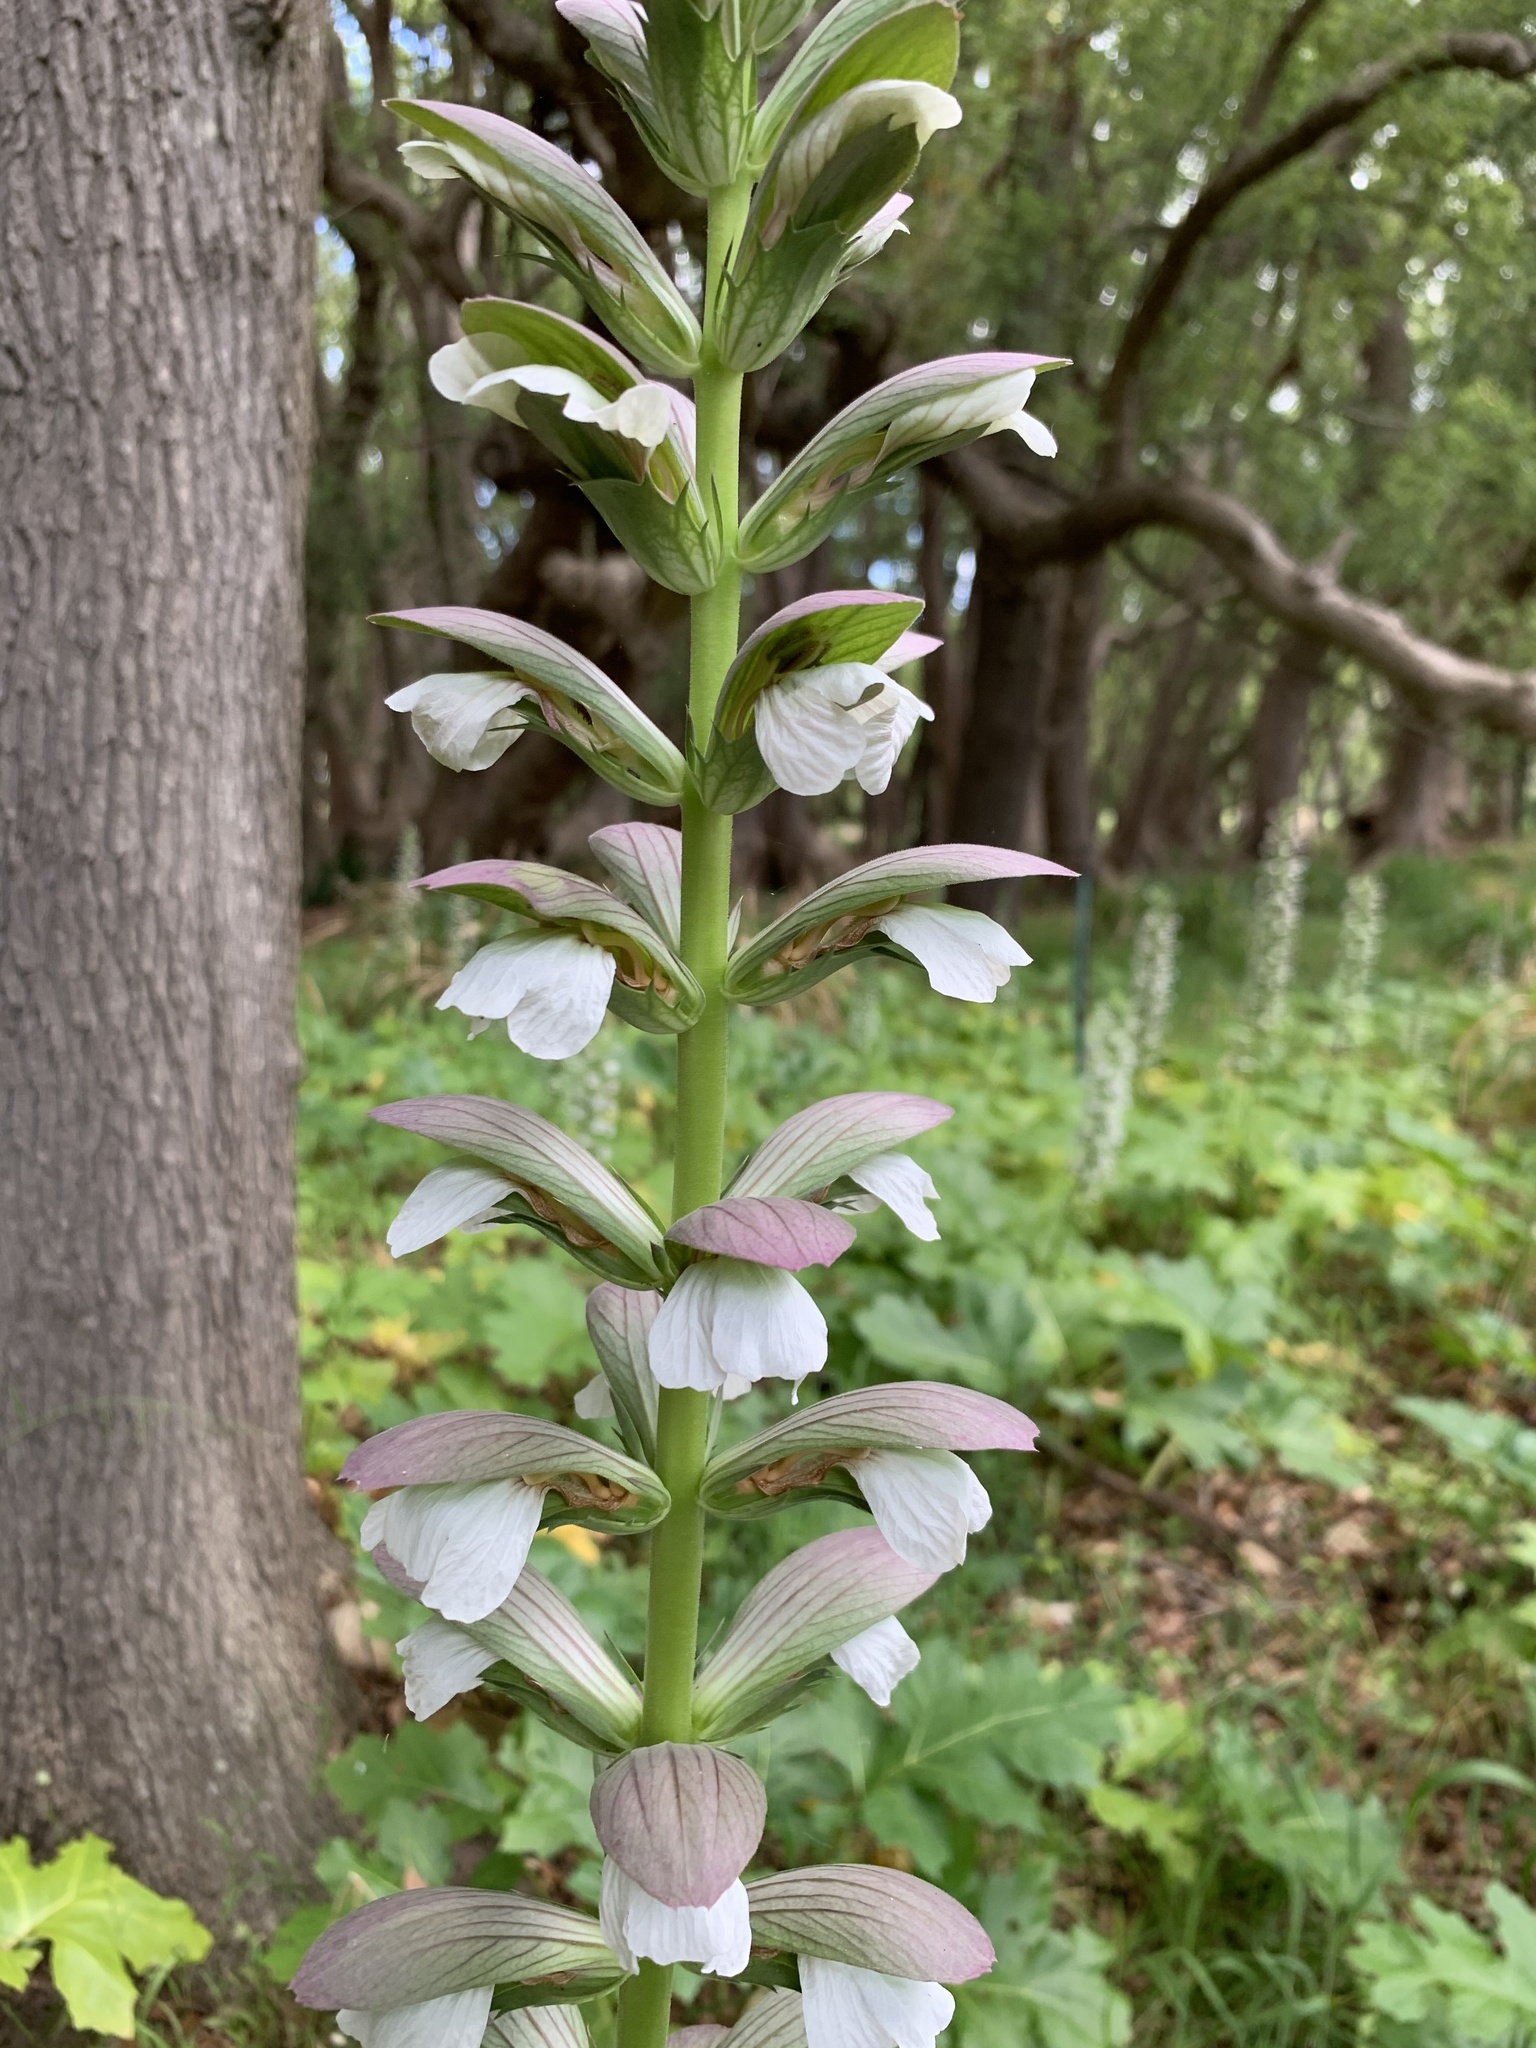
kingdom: Plantae
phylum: Tracheophyta
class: Magnoliopsida
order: Lamiales
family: Acanthaceae
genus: Acanthus
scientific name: Acanthus mollis
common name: Bear's-breech
